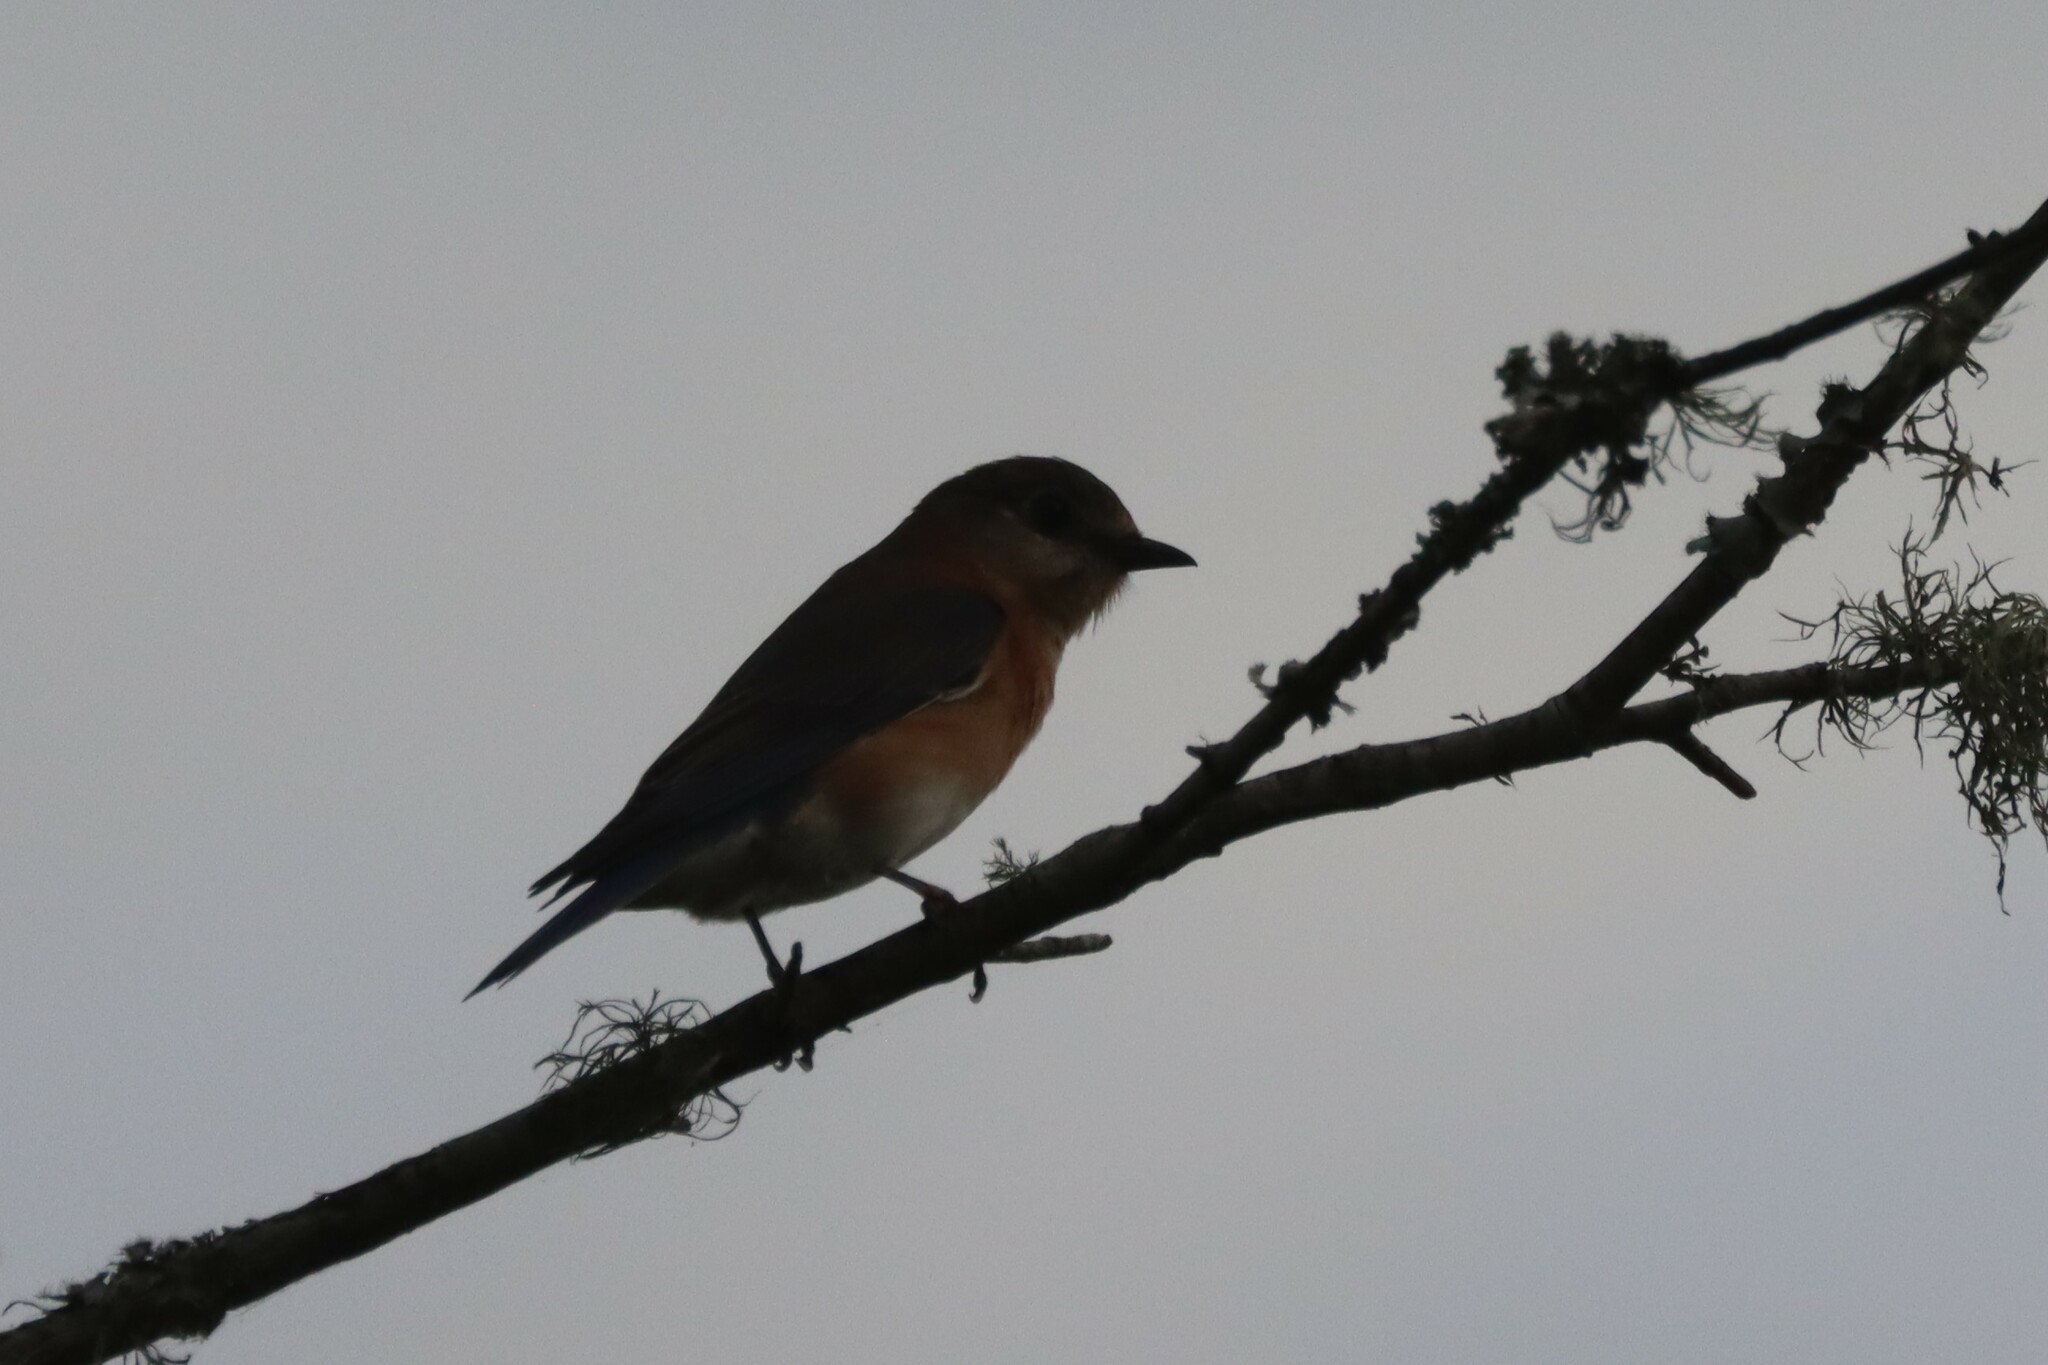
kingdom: Animalia
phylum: Chordata
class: Aves
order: Passeriformes
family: Turdidae
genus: Sialia
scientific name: Sialia sialis
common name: Eastern bluebird
